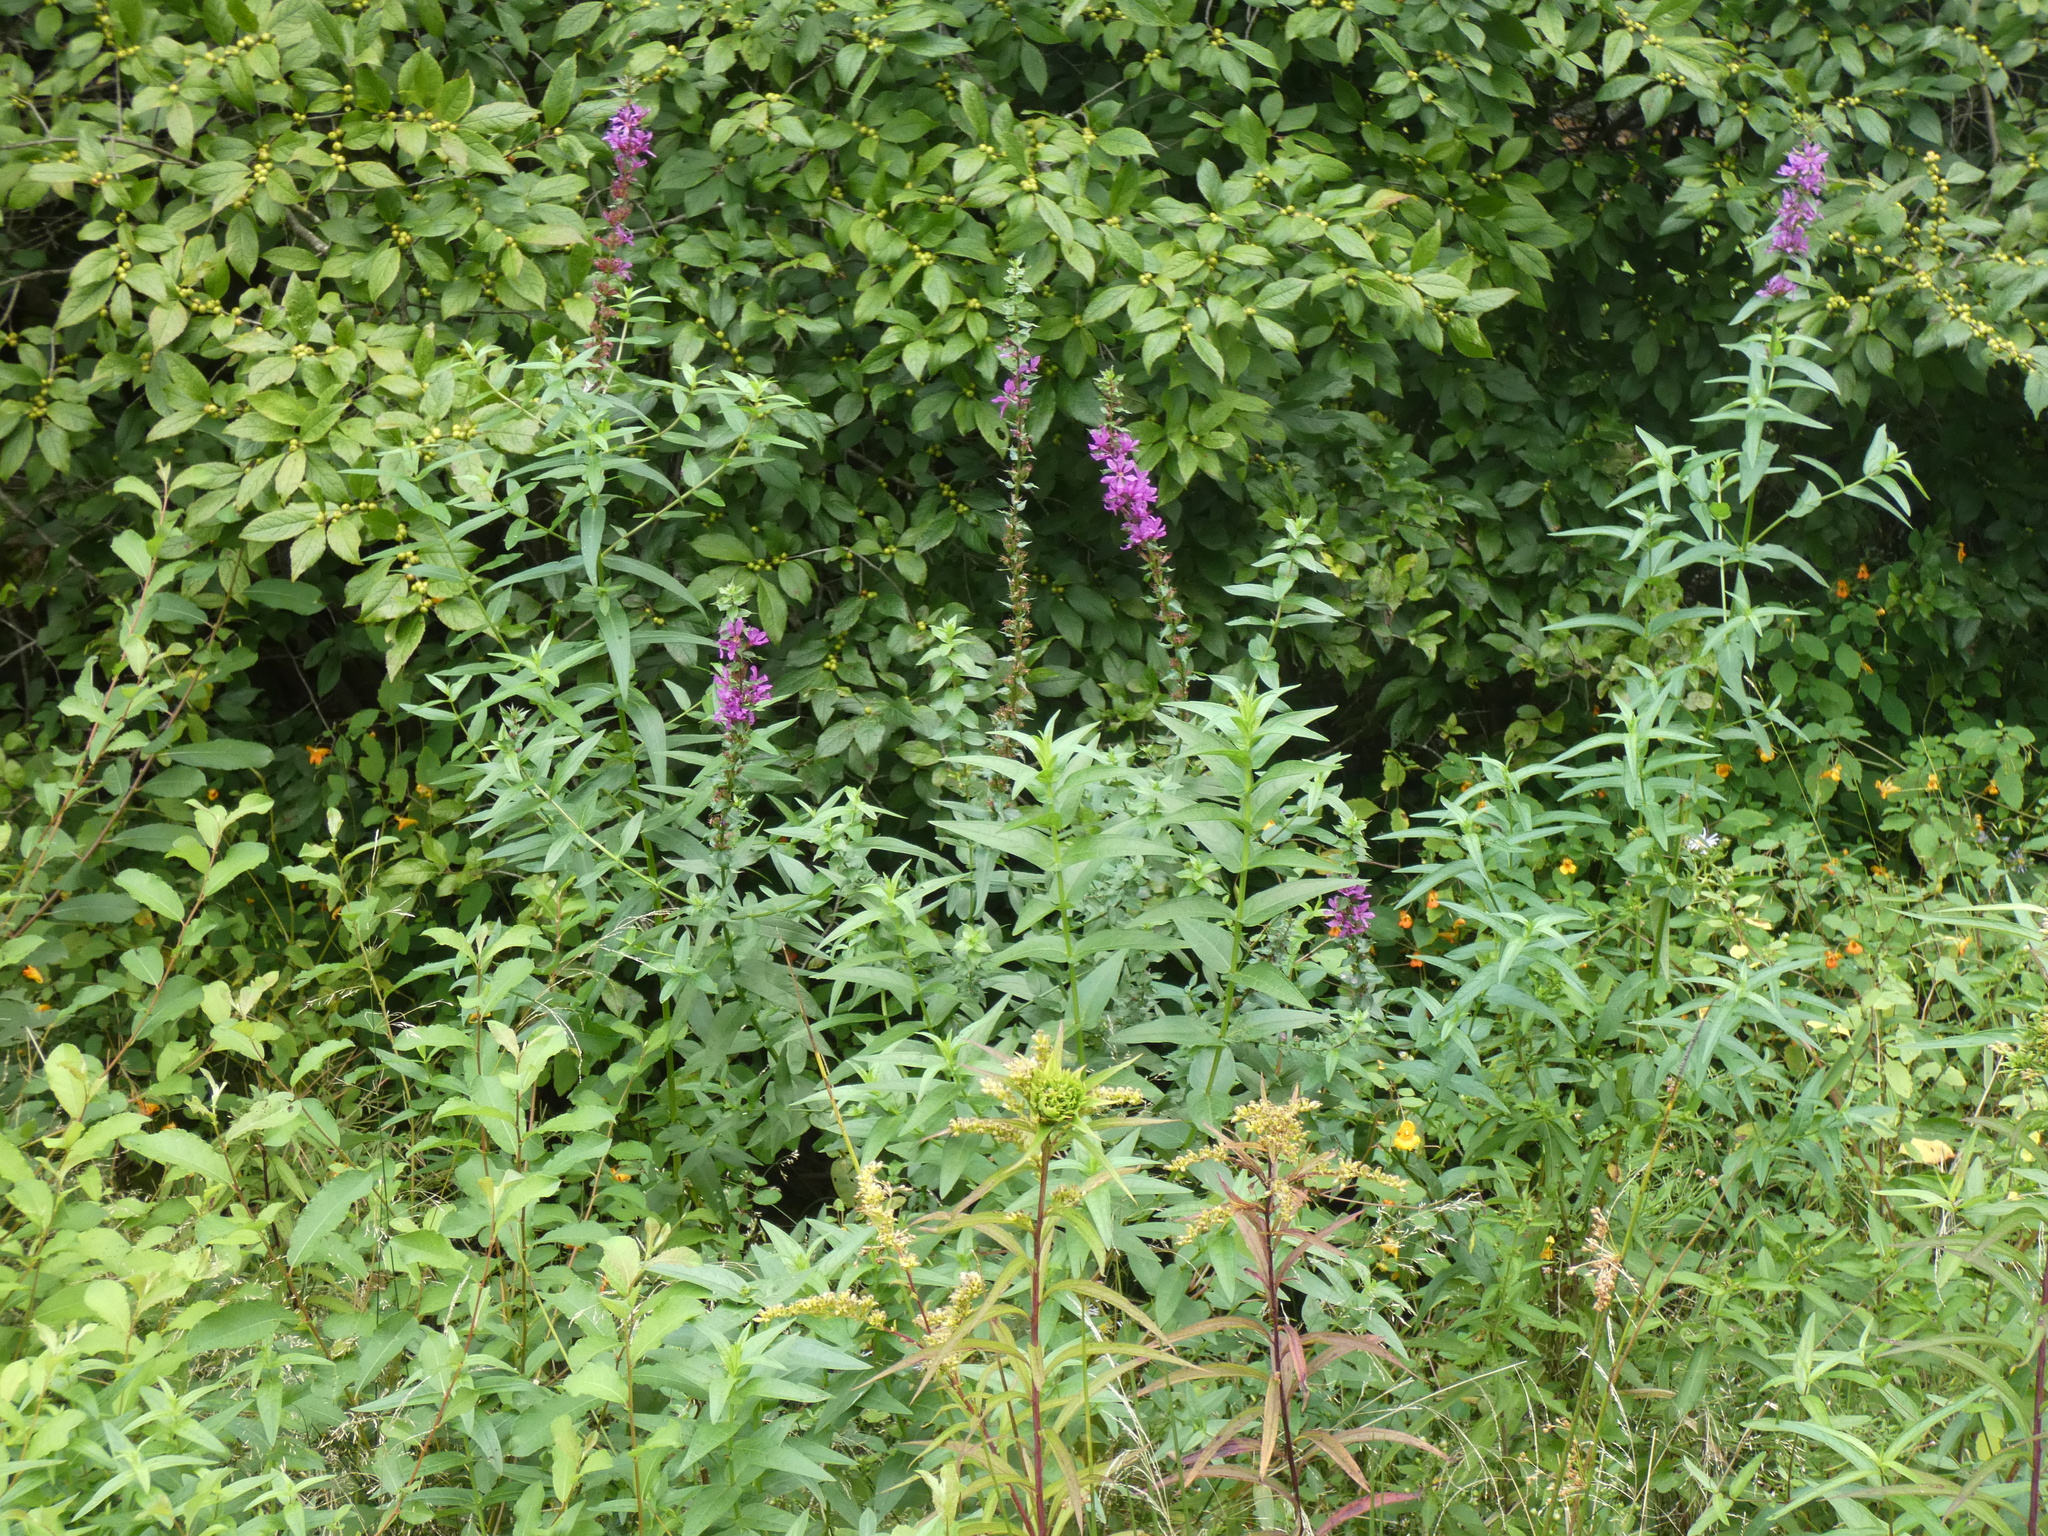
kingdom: Plantae
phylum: Tracheophyta
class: Magnoliopsida
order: Myrtales
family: Lythraceae
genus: Lythrum
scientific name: Lythrum salicaria
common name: Purple loosestrife
